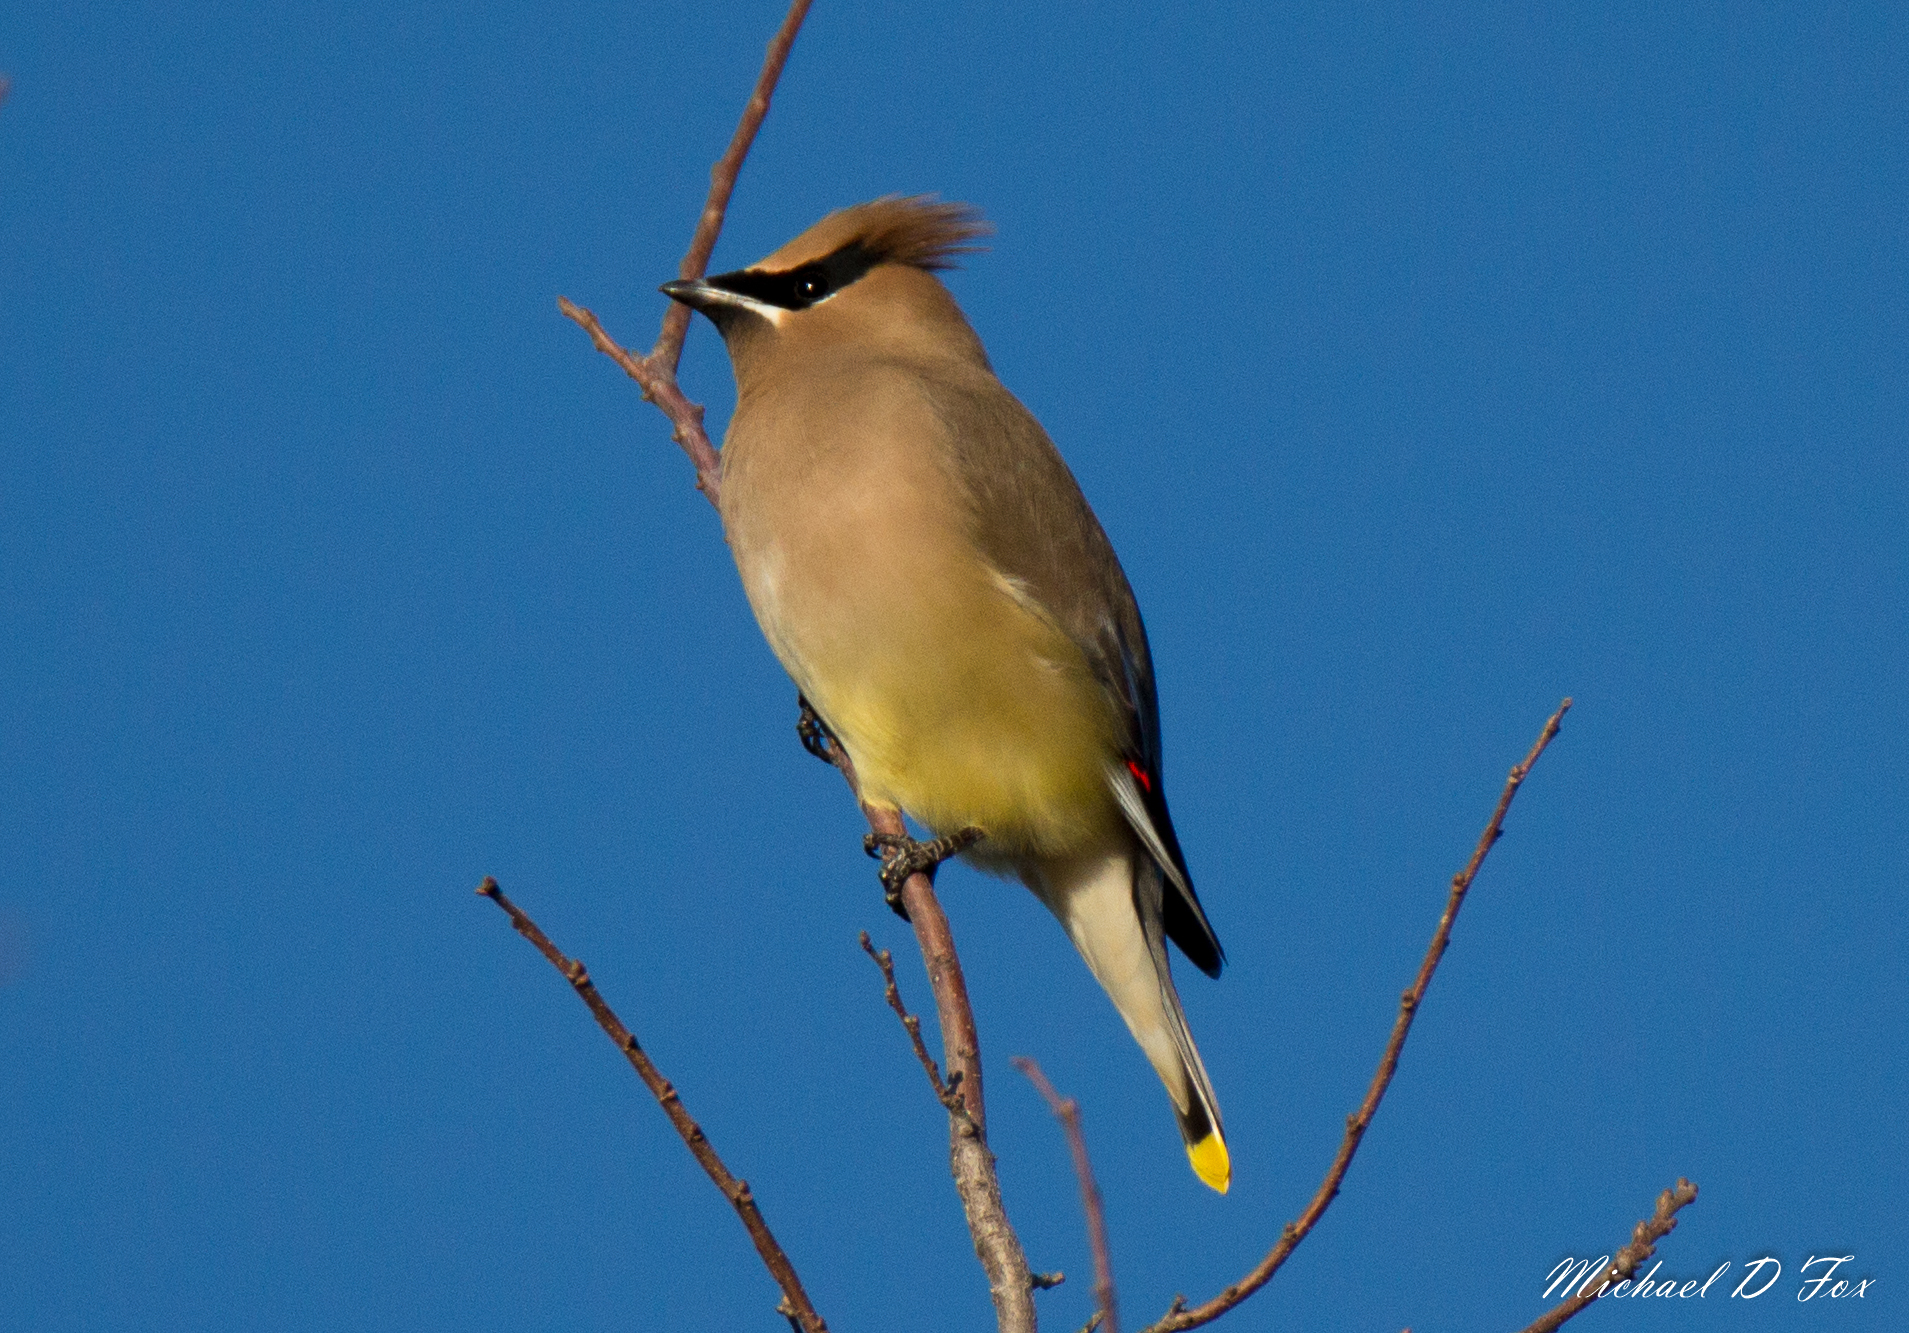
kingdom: Animalia
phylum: Chordata
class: Aves
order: Passeriformes
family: Bombycillidae
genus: Bombycilla
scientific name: Bombycilla cedrorum
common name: Cedar waxwing
